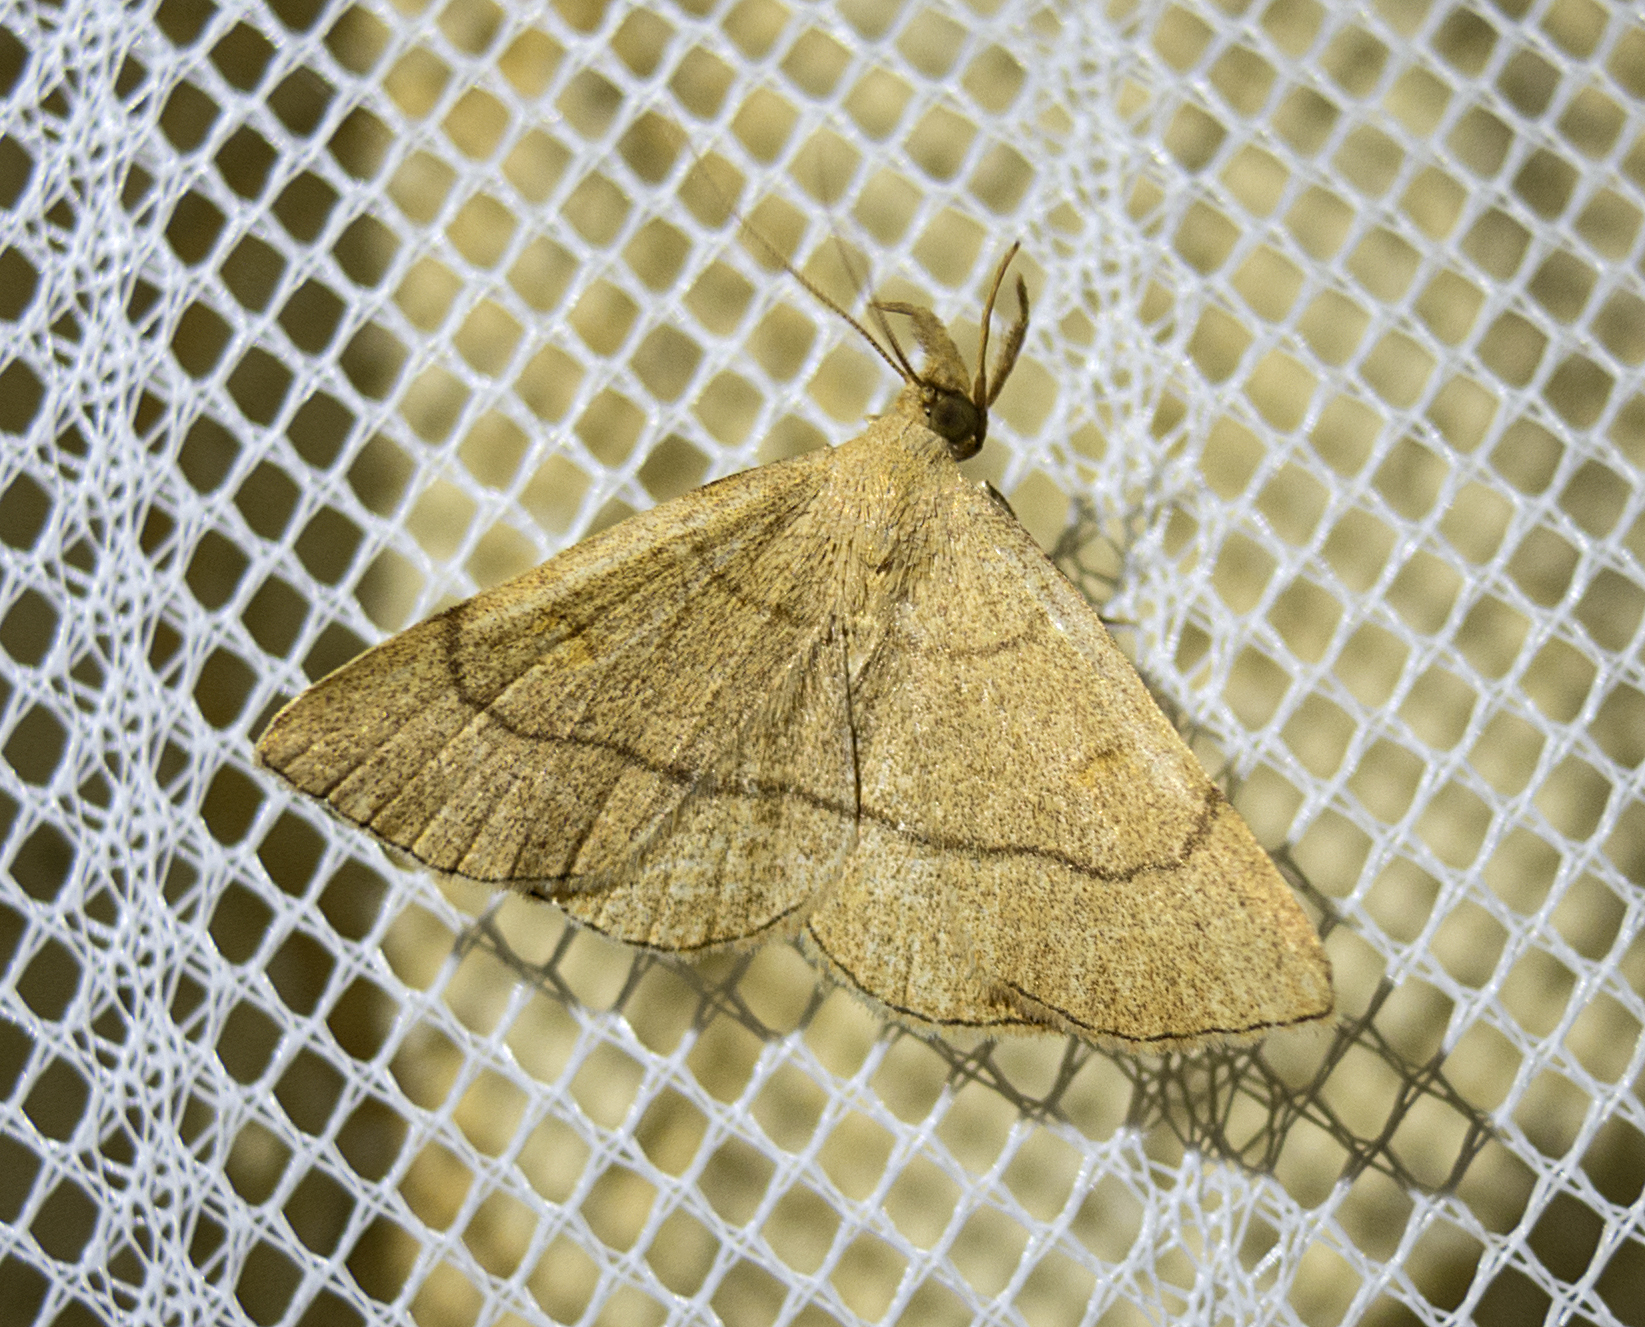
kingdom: Animalia
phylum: Arthropoda
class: Insecta
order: Lepidoptera
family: Erebidae
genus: Paracolax
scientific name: Paracolax tristalis
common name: Clay fan-foot
